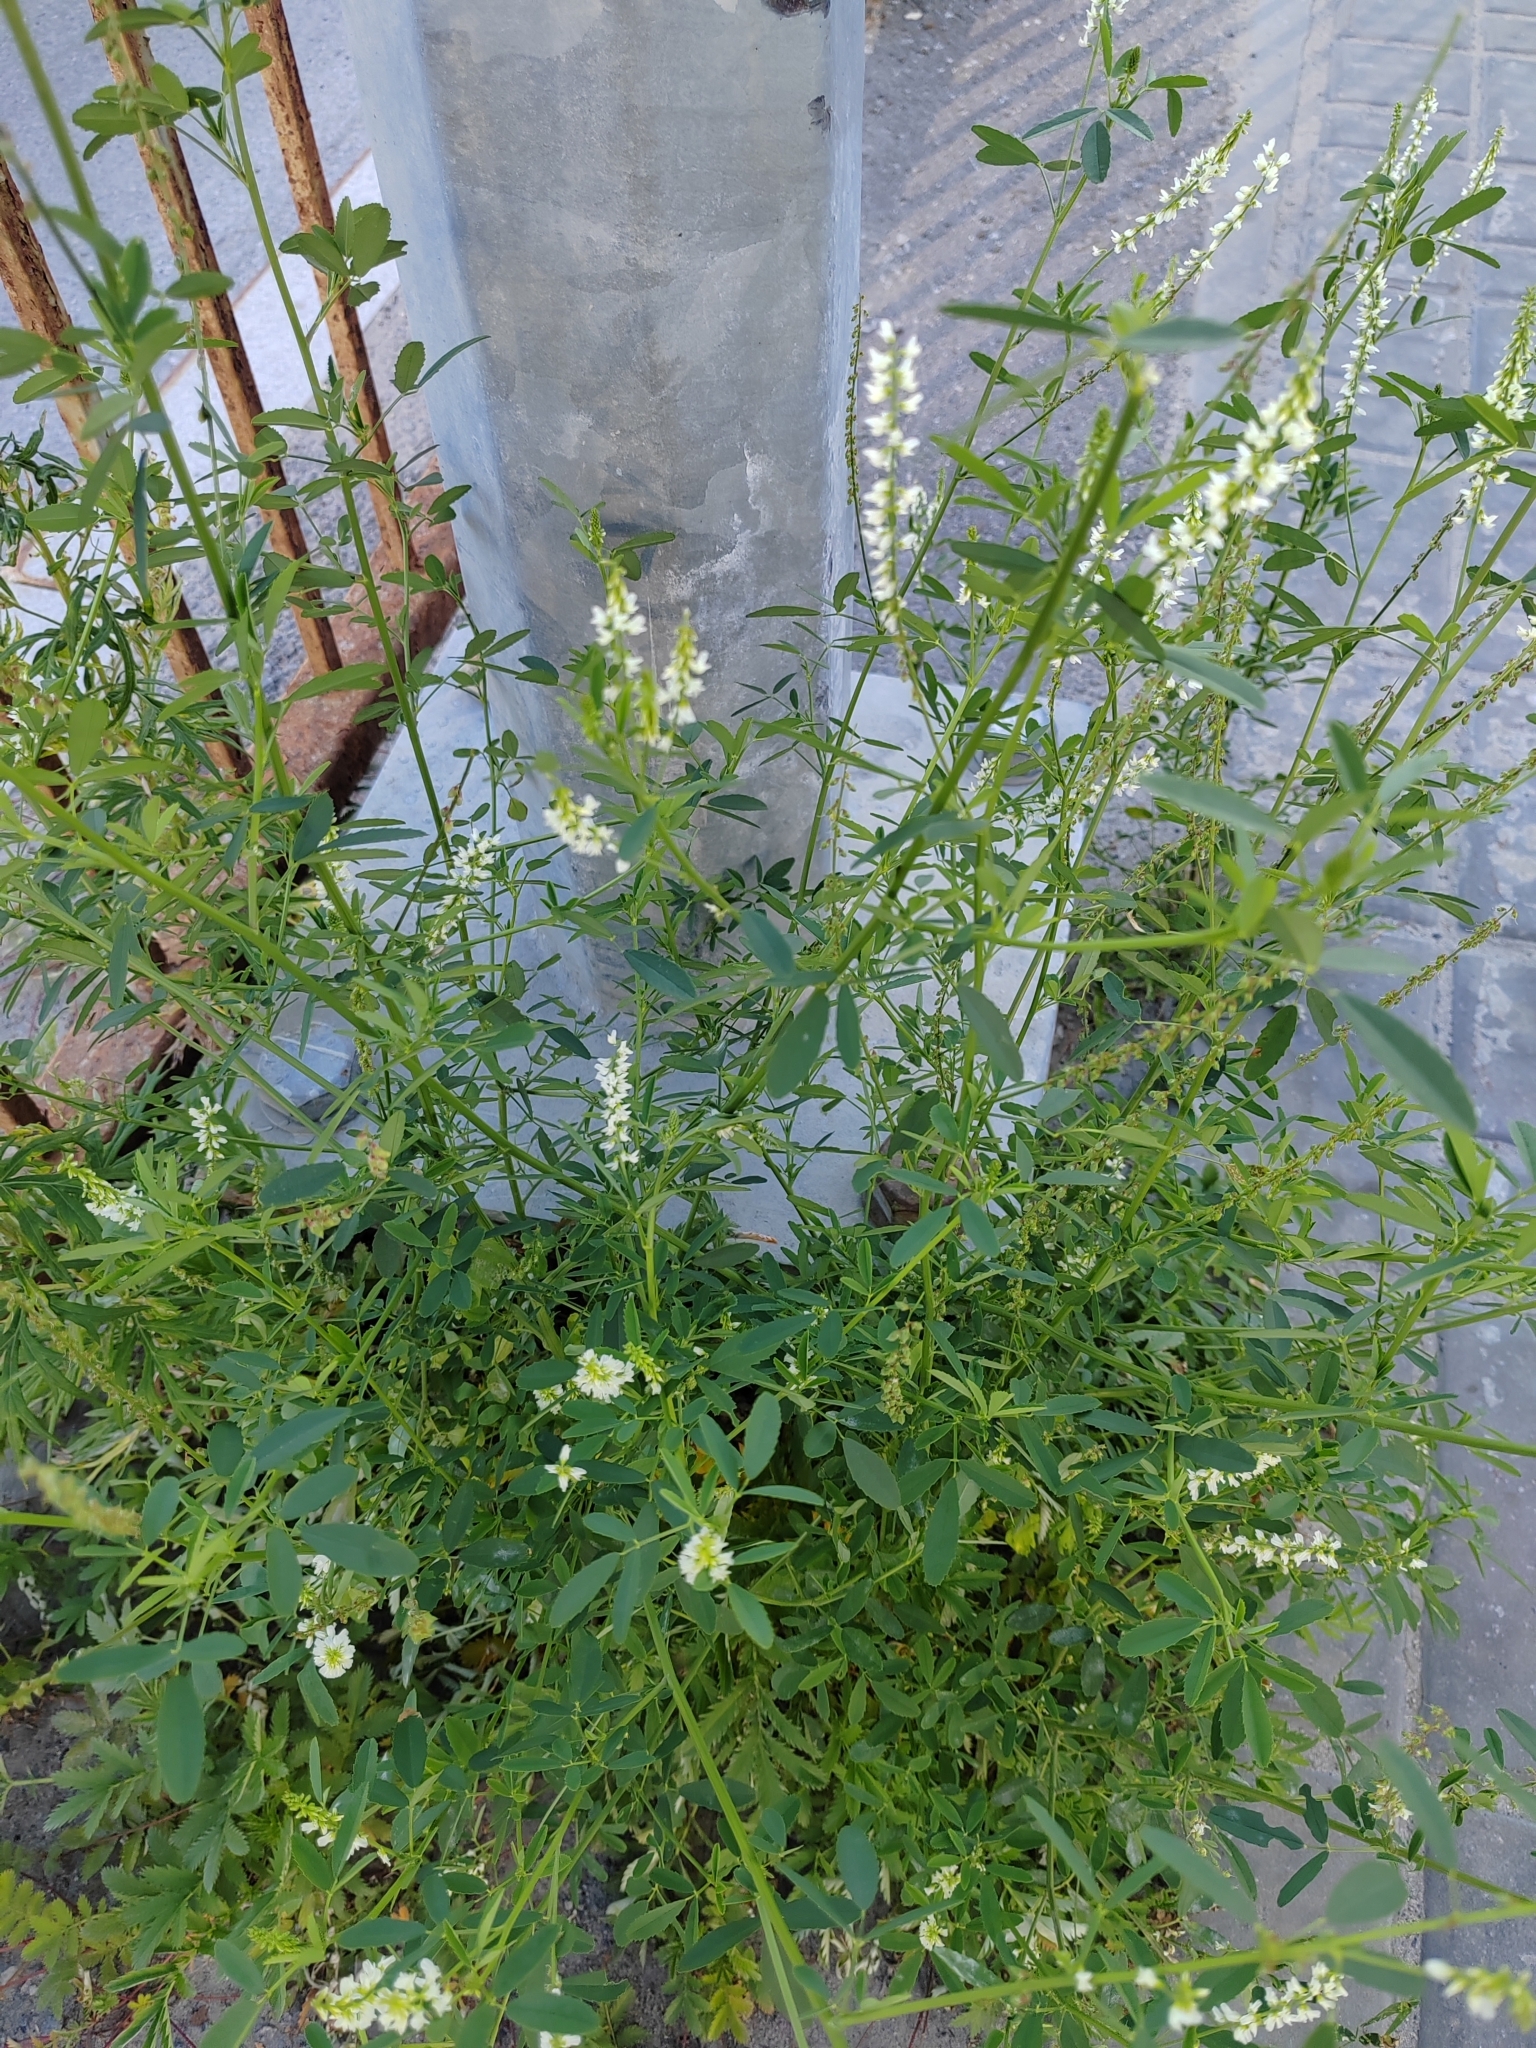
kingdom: Plantae
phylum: Tracheophyta
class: Magnoliopsida
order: Fabales
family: Fabaceae
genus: Melilotus
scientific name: Melilotus albus
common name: White melilot
